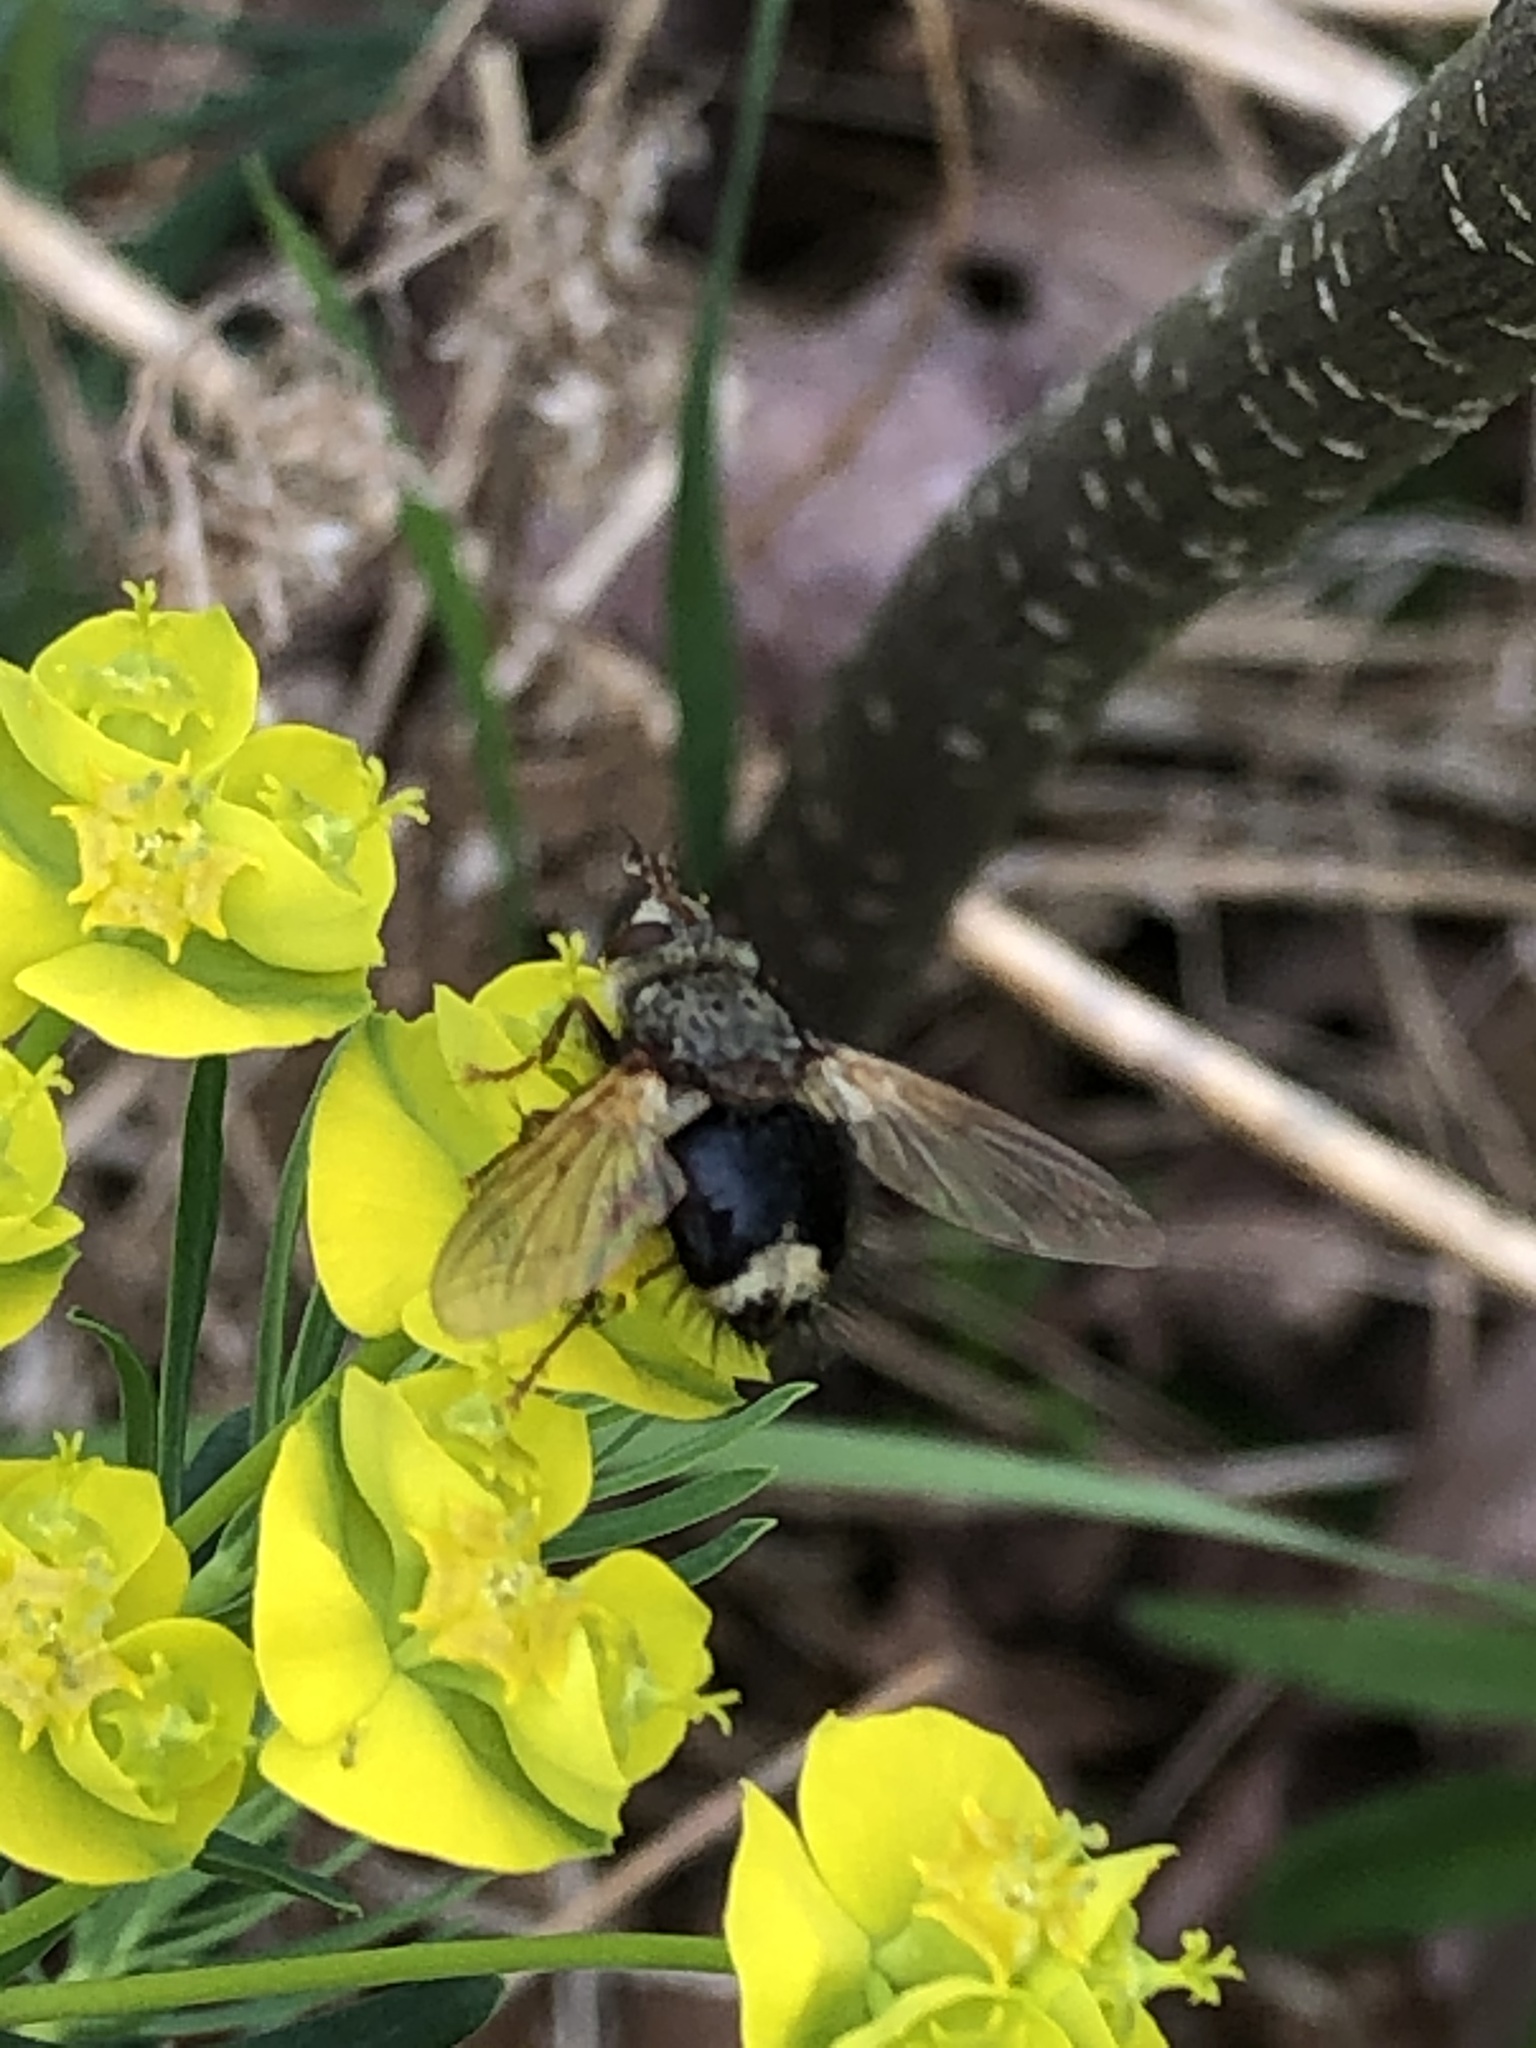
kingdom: Animalia
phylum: Arthropoda
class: Insecta
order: Diptera
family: Tachinidae
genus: Epalpus
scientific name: Epalpus signifer
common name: Early tachinid fly
